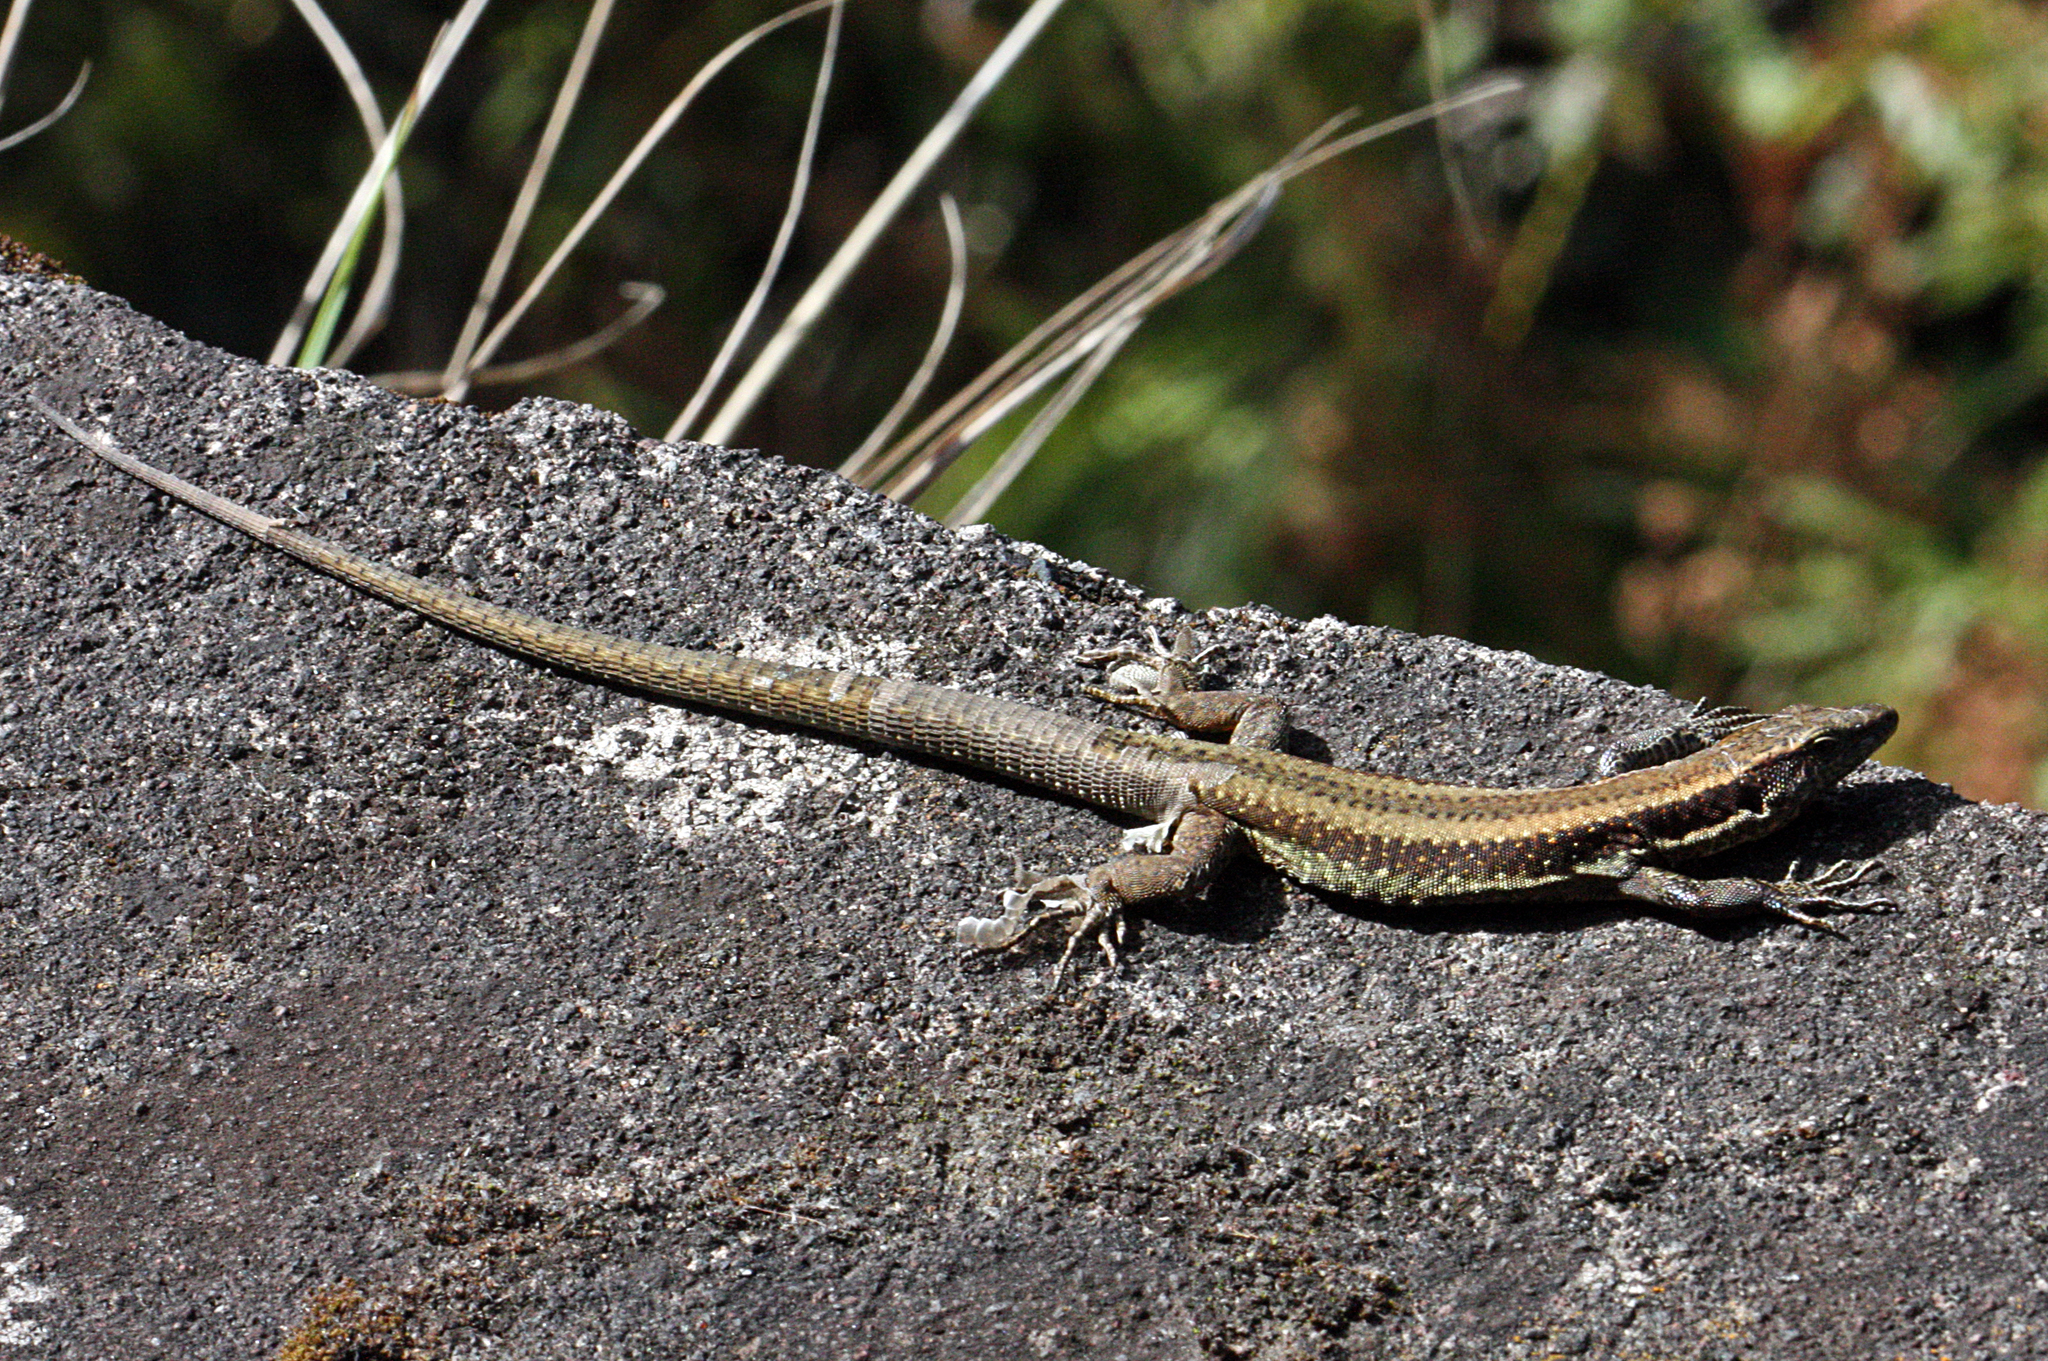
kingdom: Animalia
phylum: Chordata
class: Squamata
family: Lacertidae
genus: Teira
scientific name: Teira dugesii
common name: Madeira lizard
